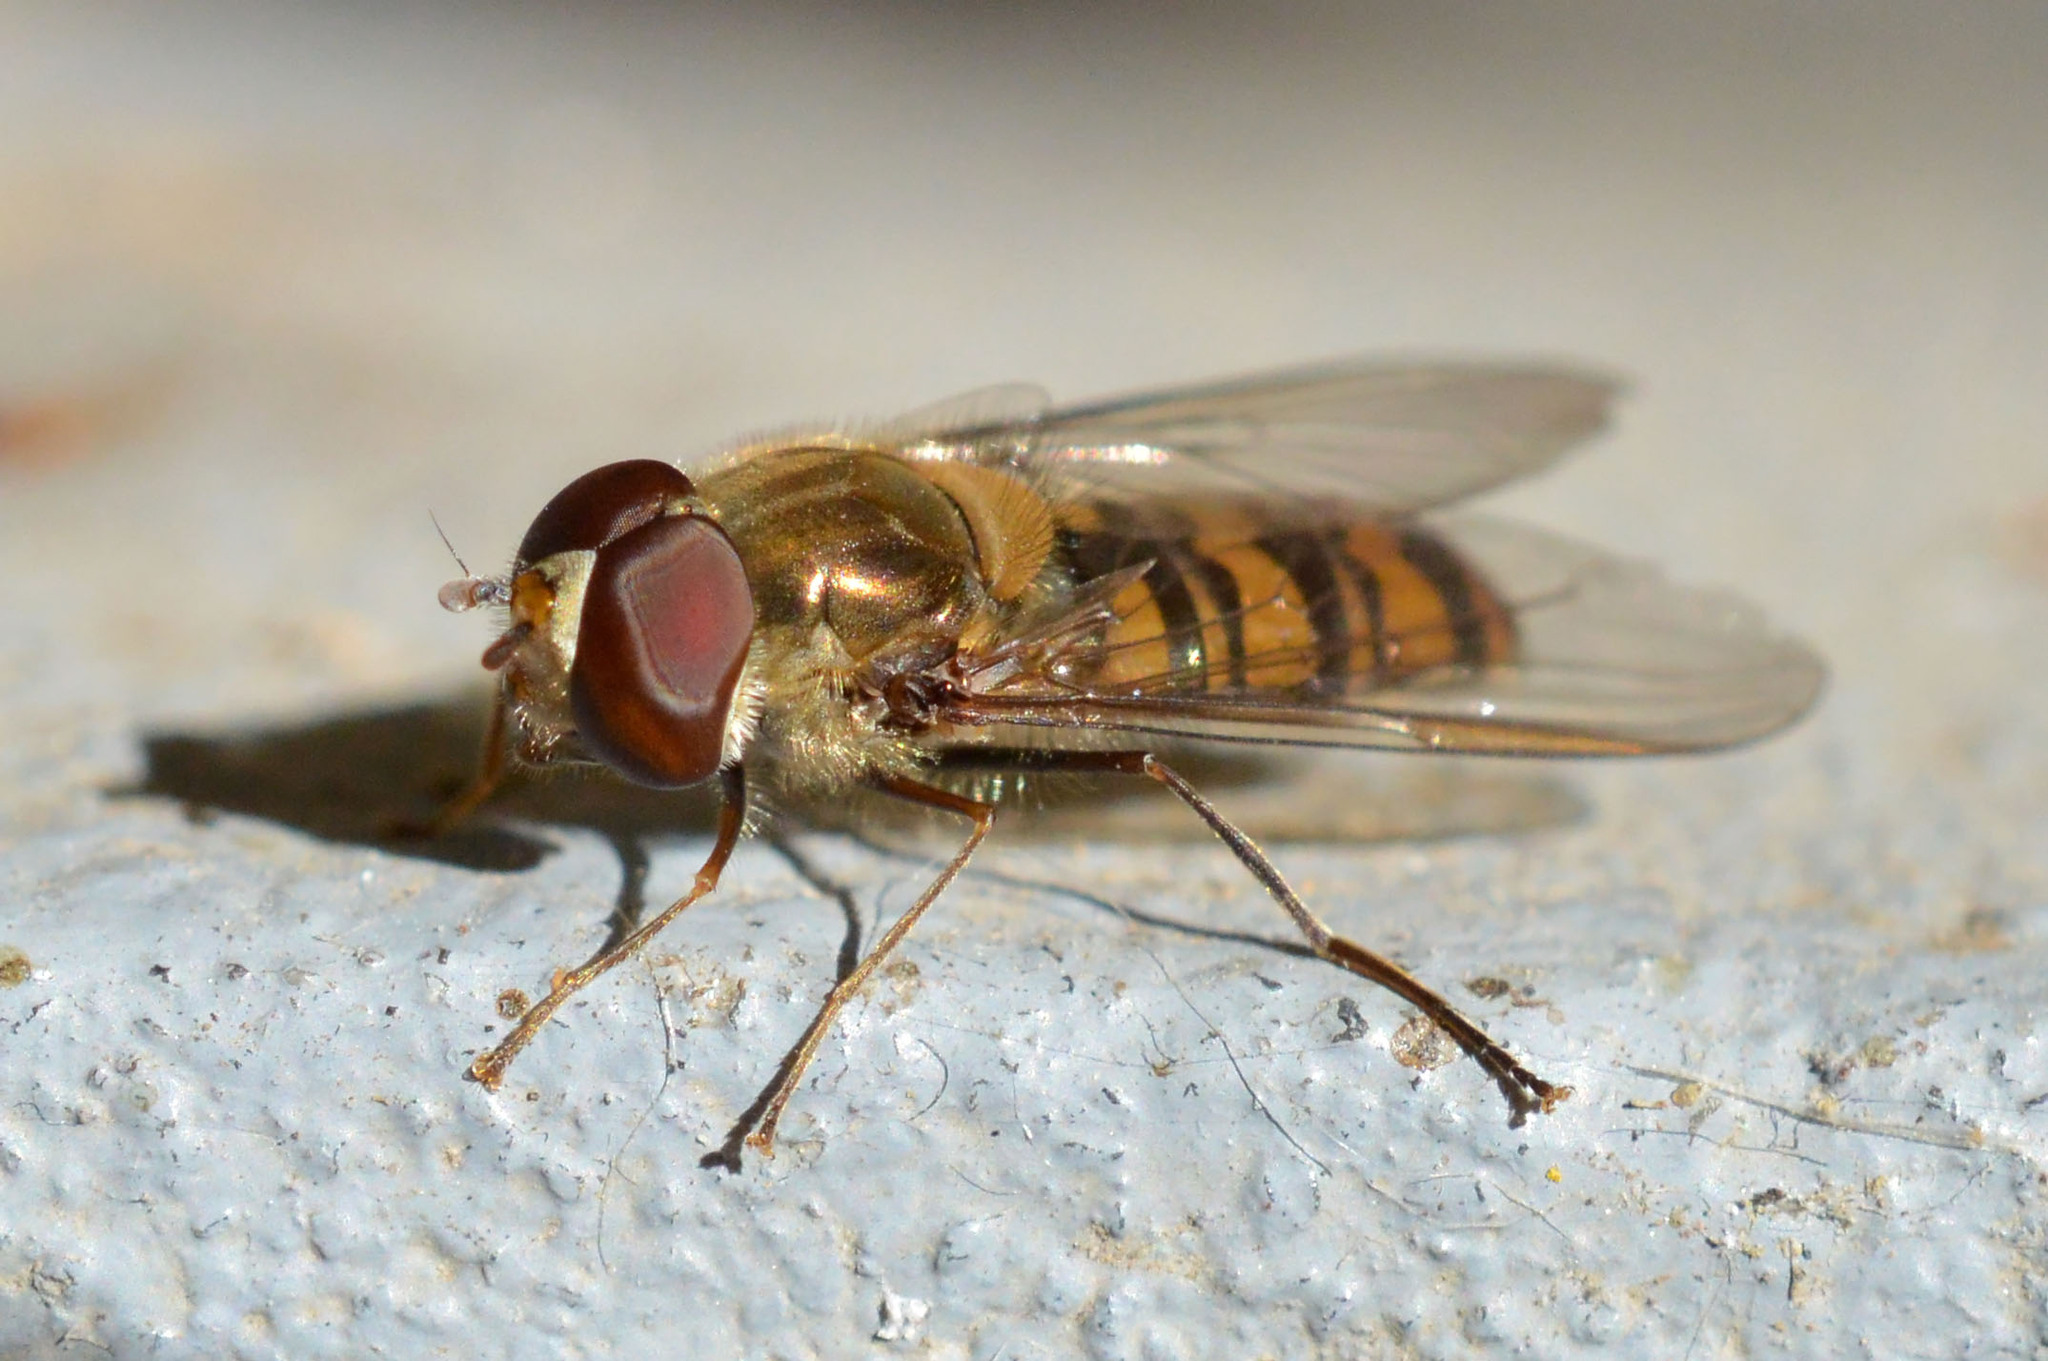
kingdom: Animalia
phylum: Arthropoda
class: Insecta
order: Diptera
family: Syrphidae
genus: Episyrphus
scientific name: Episyrphus balteatus
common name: Marmalade hoverfly
